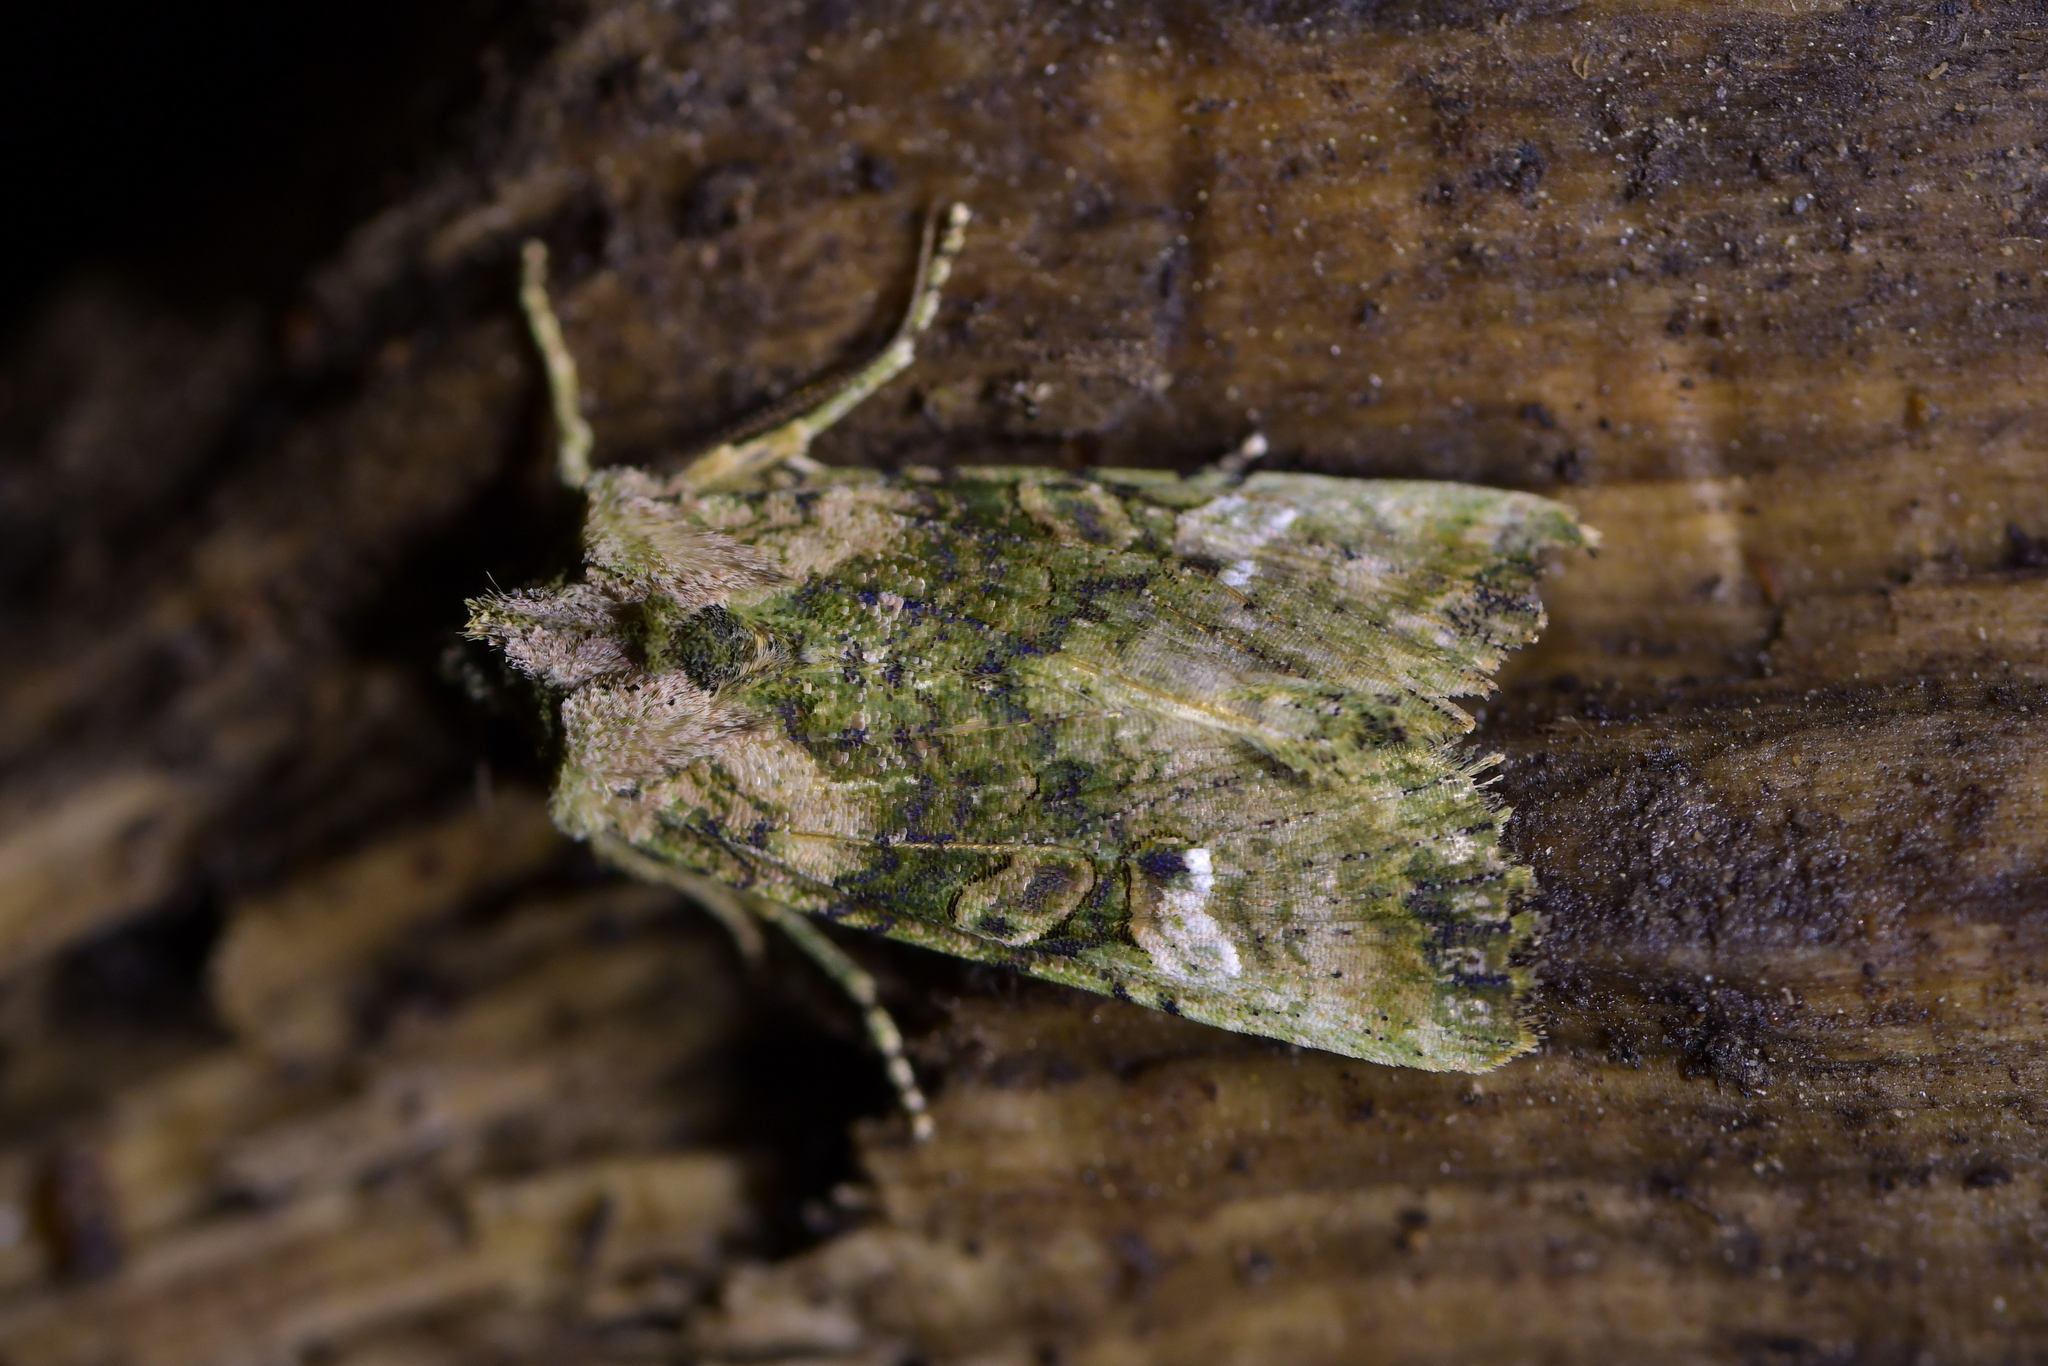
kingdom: Animalia
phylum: Arthropoda
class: Insecta
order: Lepidoptera
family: Noctuidae
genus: Meterana
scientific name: Meterana levis
